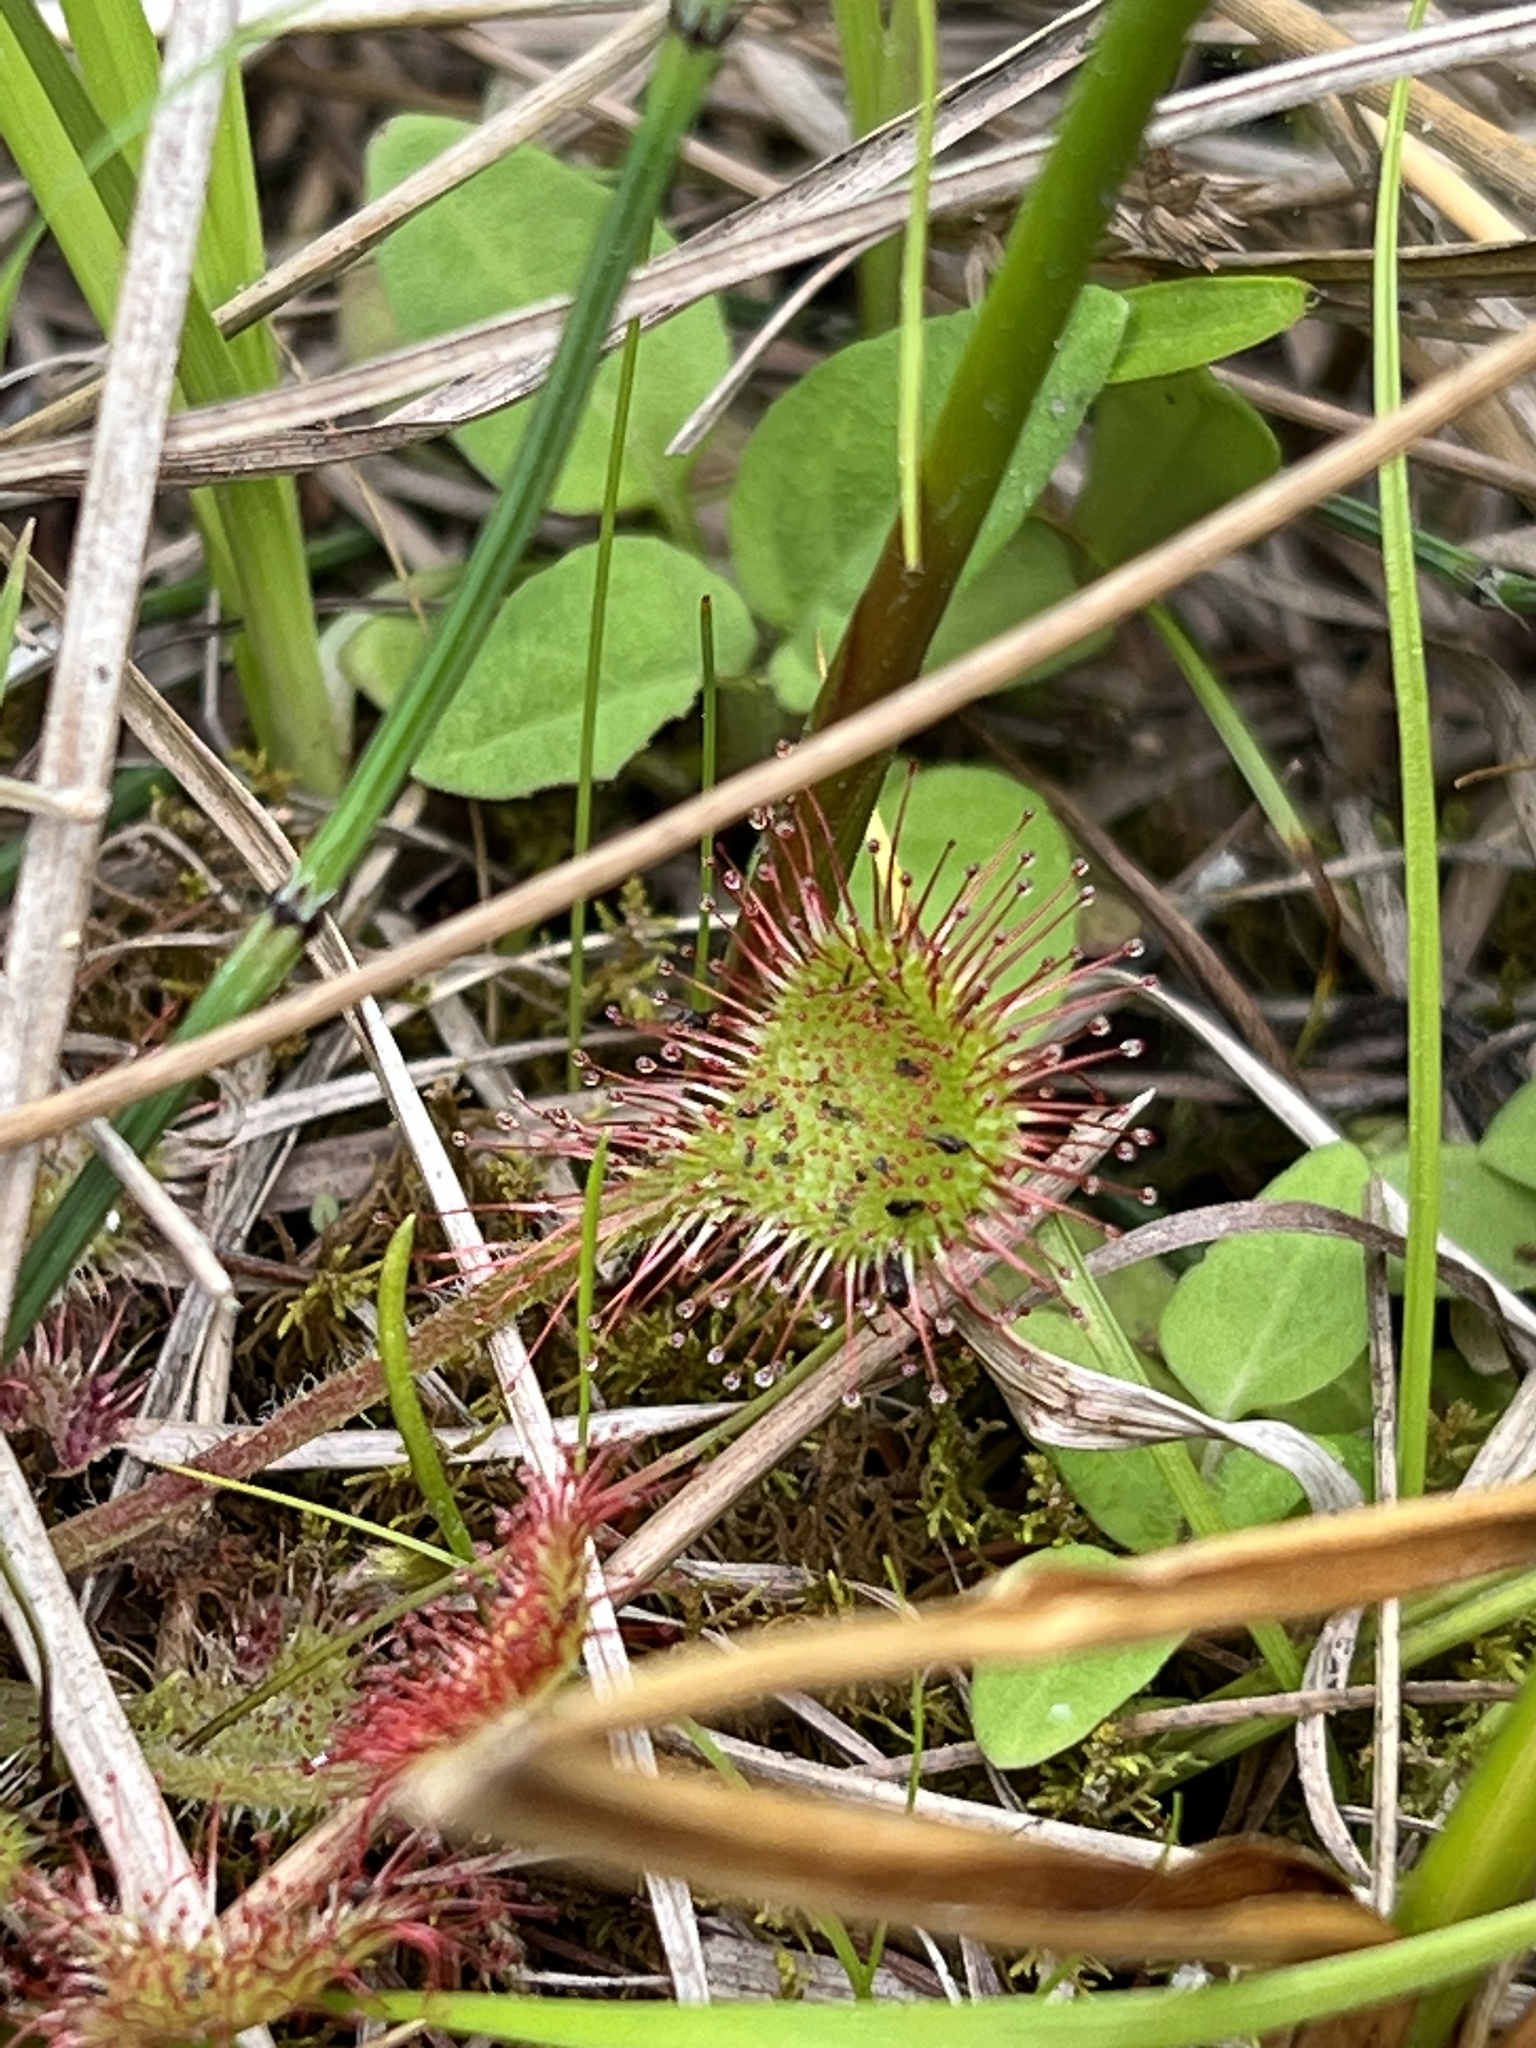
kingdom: Plantae
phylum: Tracheophyta
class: Magnoliopsida
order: Caryophyllales
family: Droseraceae
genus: Drosera
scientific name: Drosera rotundifolia
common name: Round-leaved sundew
